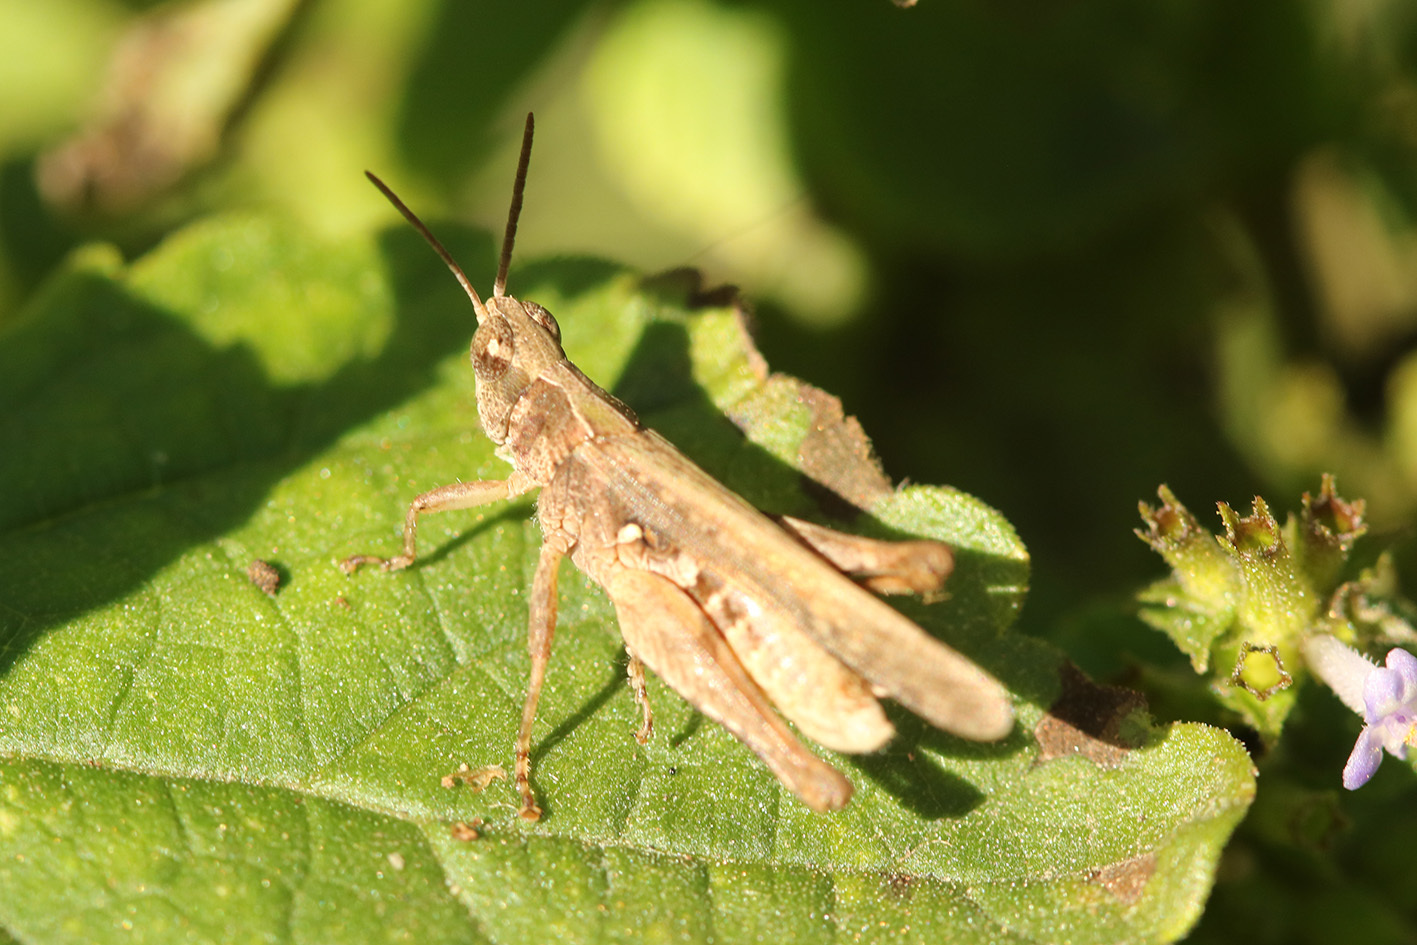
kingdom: Animalia
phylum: Arthropoda
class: Insecta
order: Orthoptera
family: Acrididae
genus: Orphulella
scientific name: Orphulella punctata
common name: Slant-faced grasshopper
